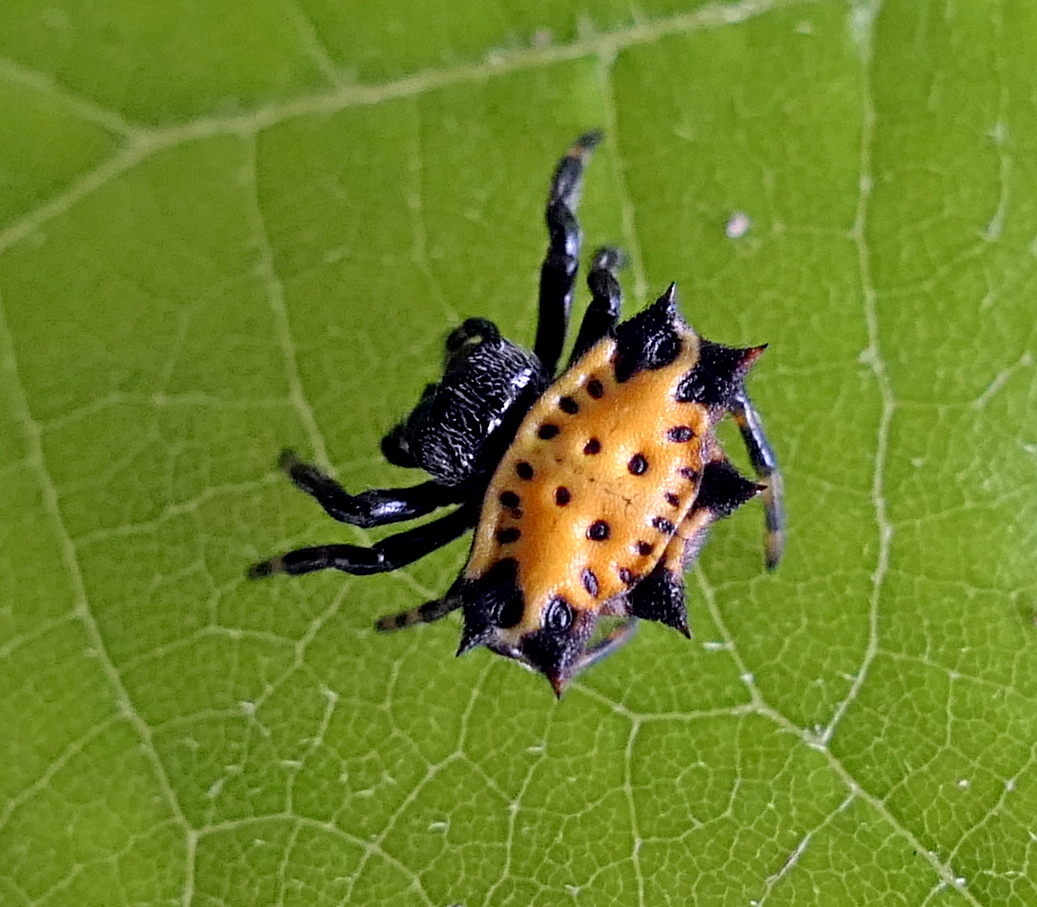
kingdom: Animalia
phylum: Arthropoda
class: Arachnida
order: Araneae
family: Araneidae
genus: Gasteracantha
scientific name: Gasteracantha cancriformis
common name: Orb weavers
